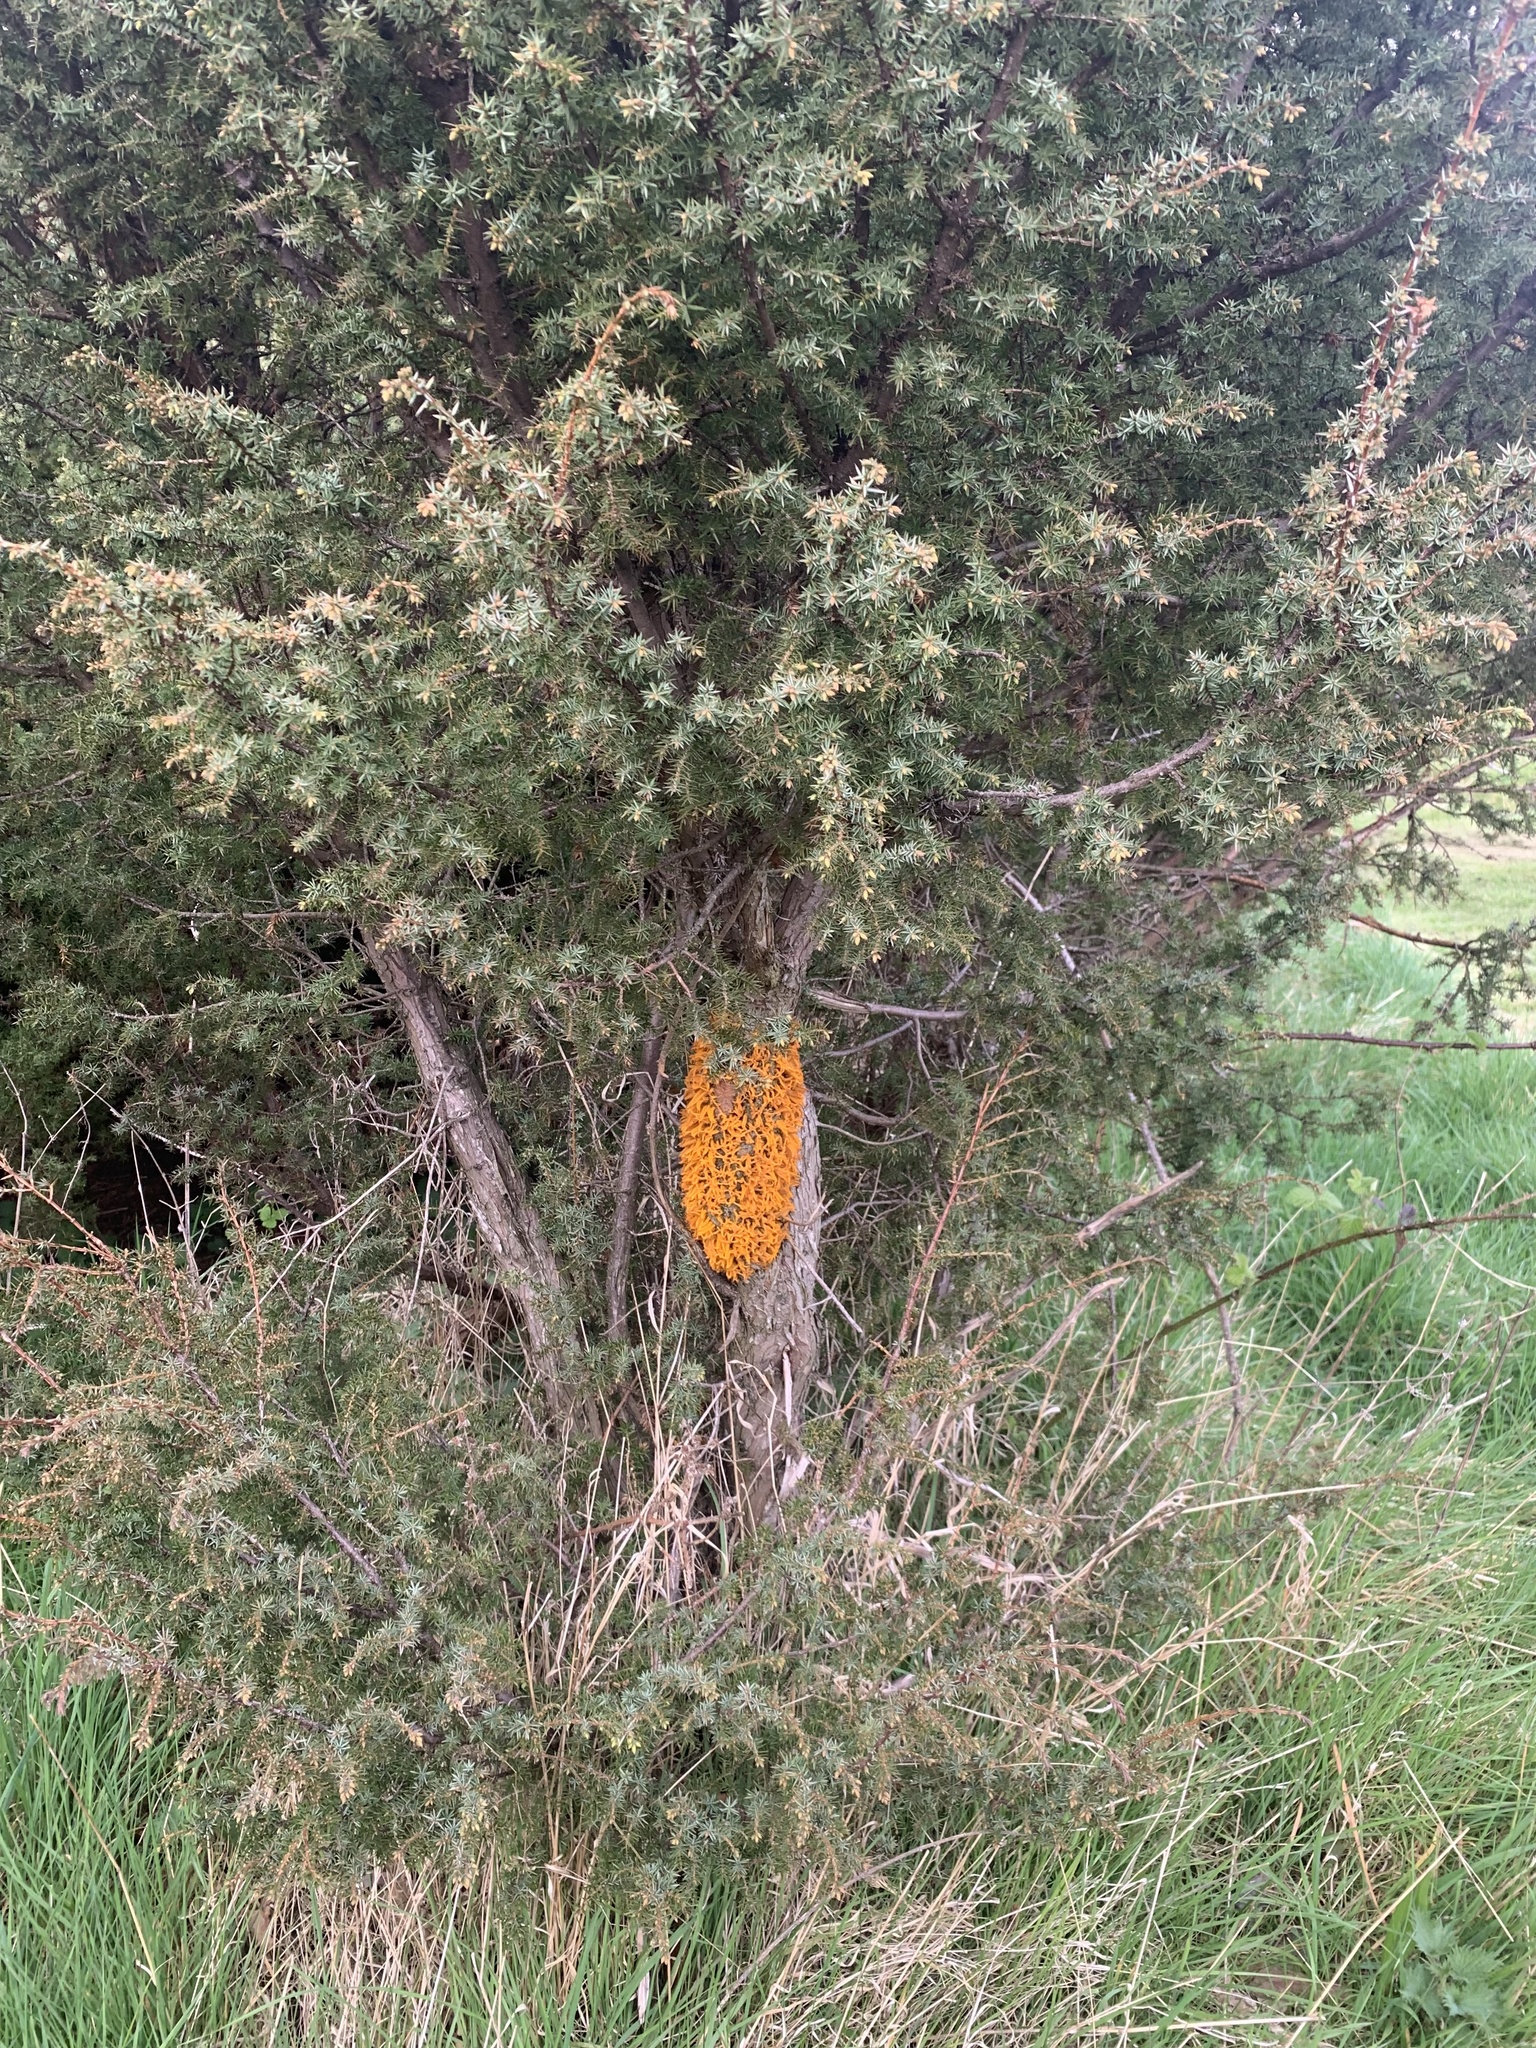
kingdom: Fungi
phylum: Basidiomycota
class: Pucciniomycetes
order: Pucciniales
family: Gymnosporangiaceae
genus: Gymnosporangium
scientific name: Gymnosporangium clavariiforme
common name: Tongues of fire
